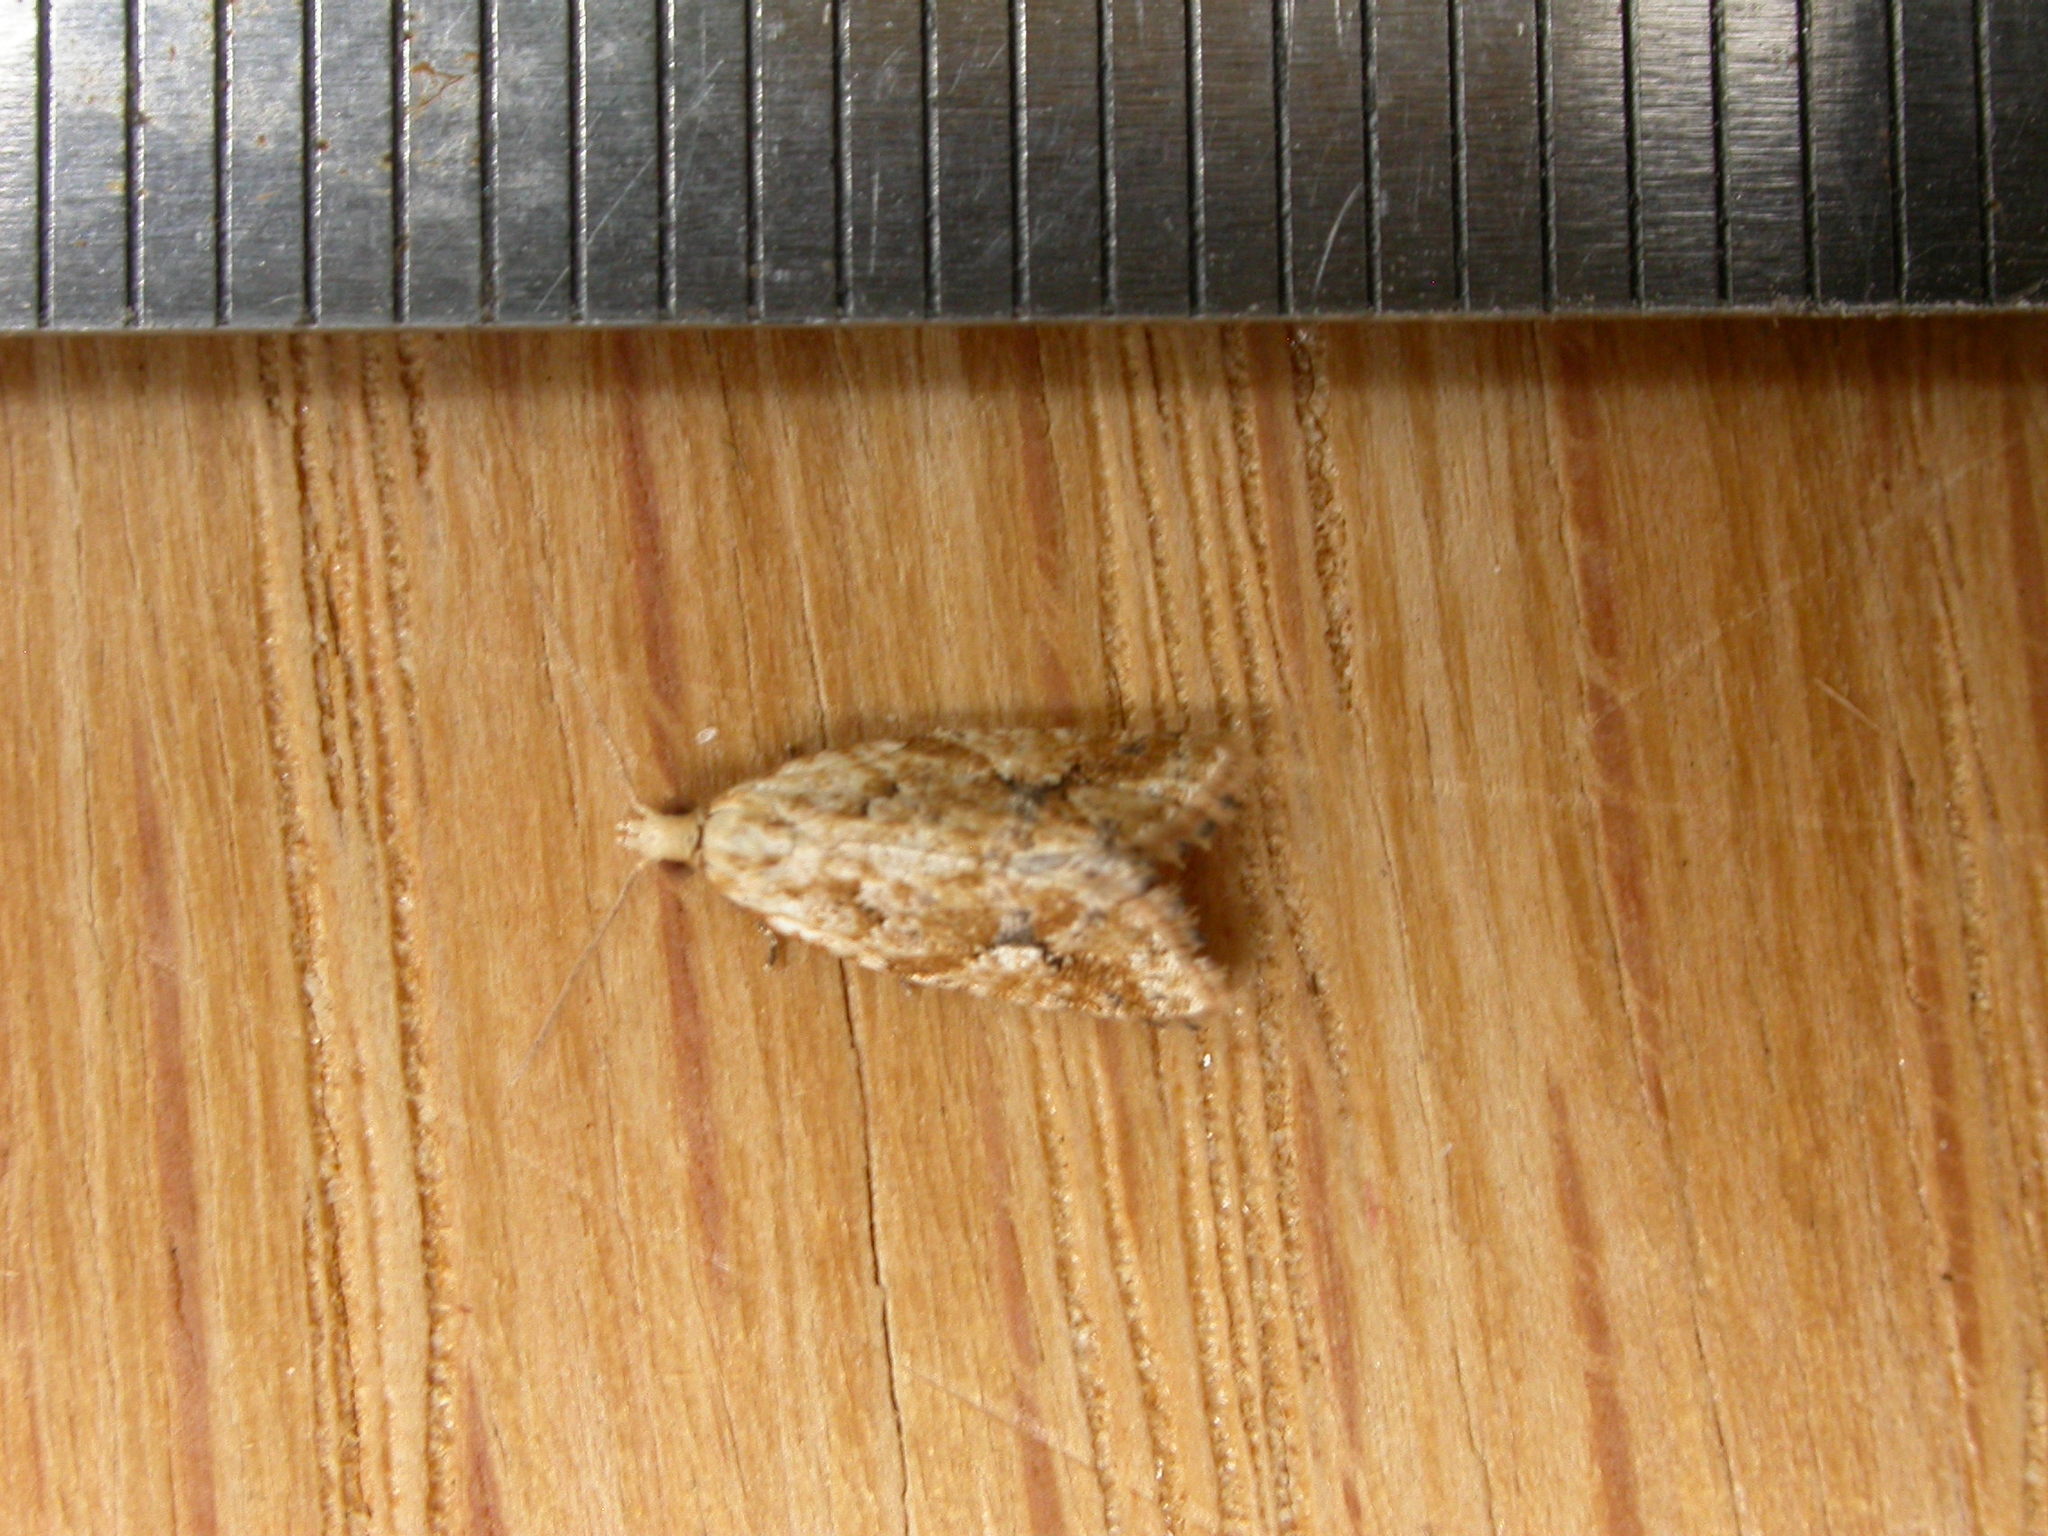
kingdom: Animalia
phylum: Arthropoda
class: Insecta
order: Lepidoptera
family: Tortricidae
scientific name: Tortricidae
